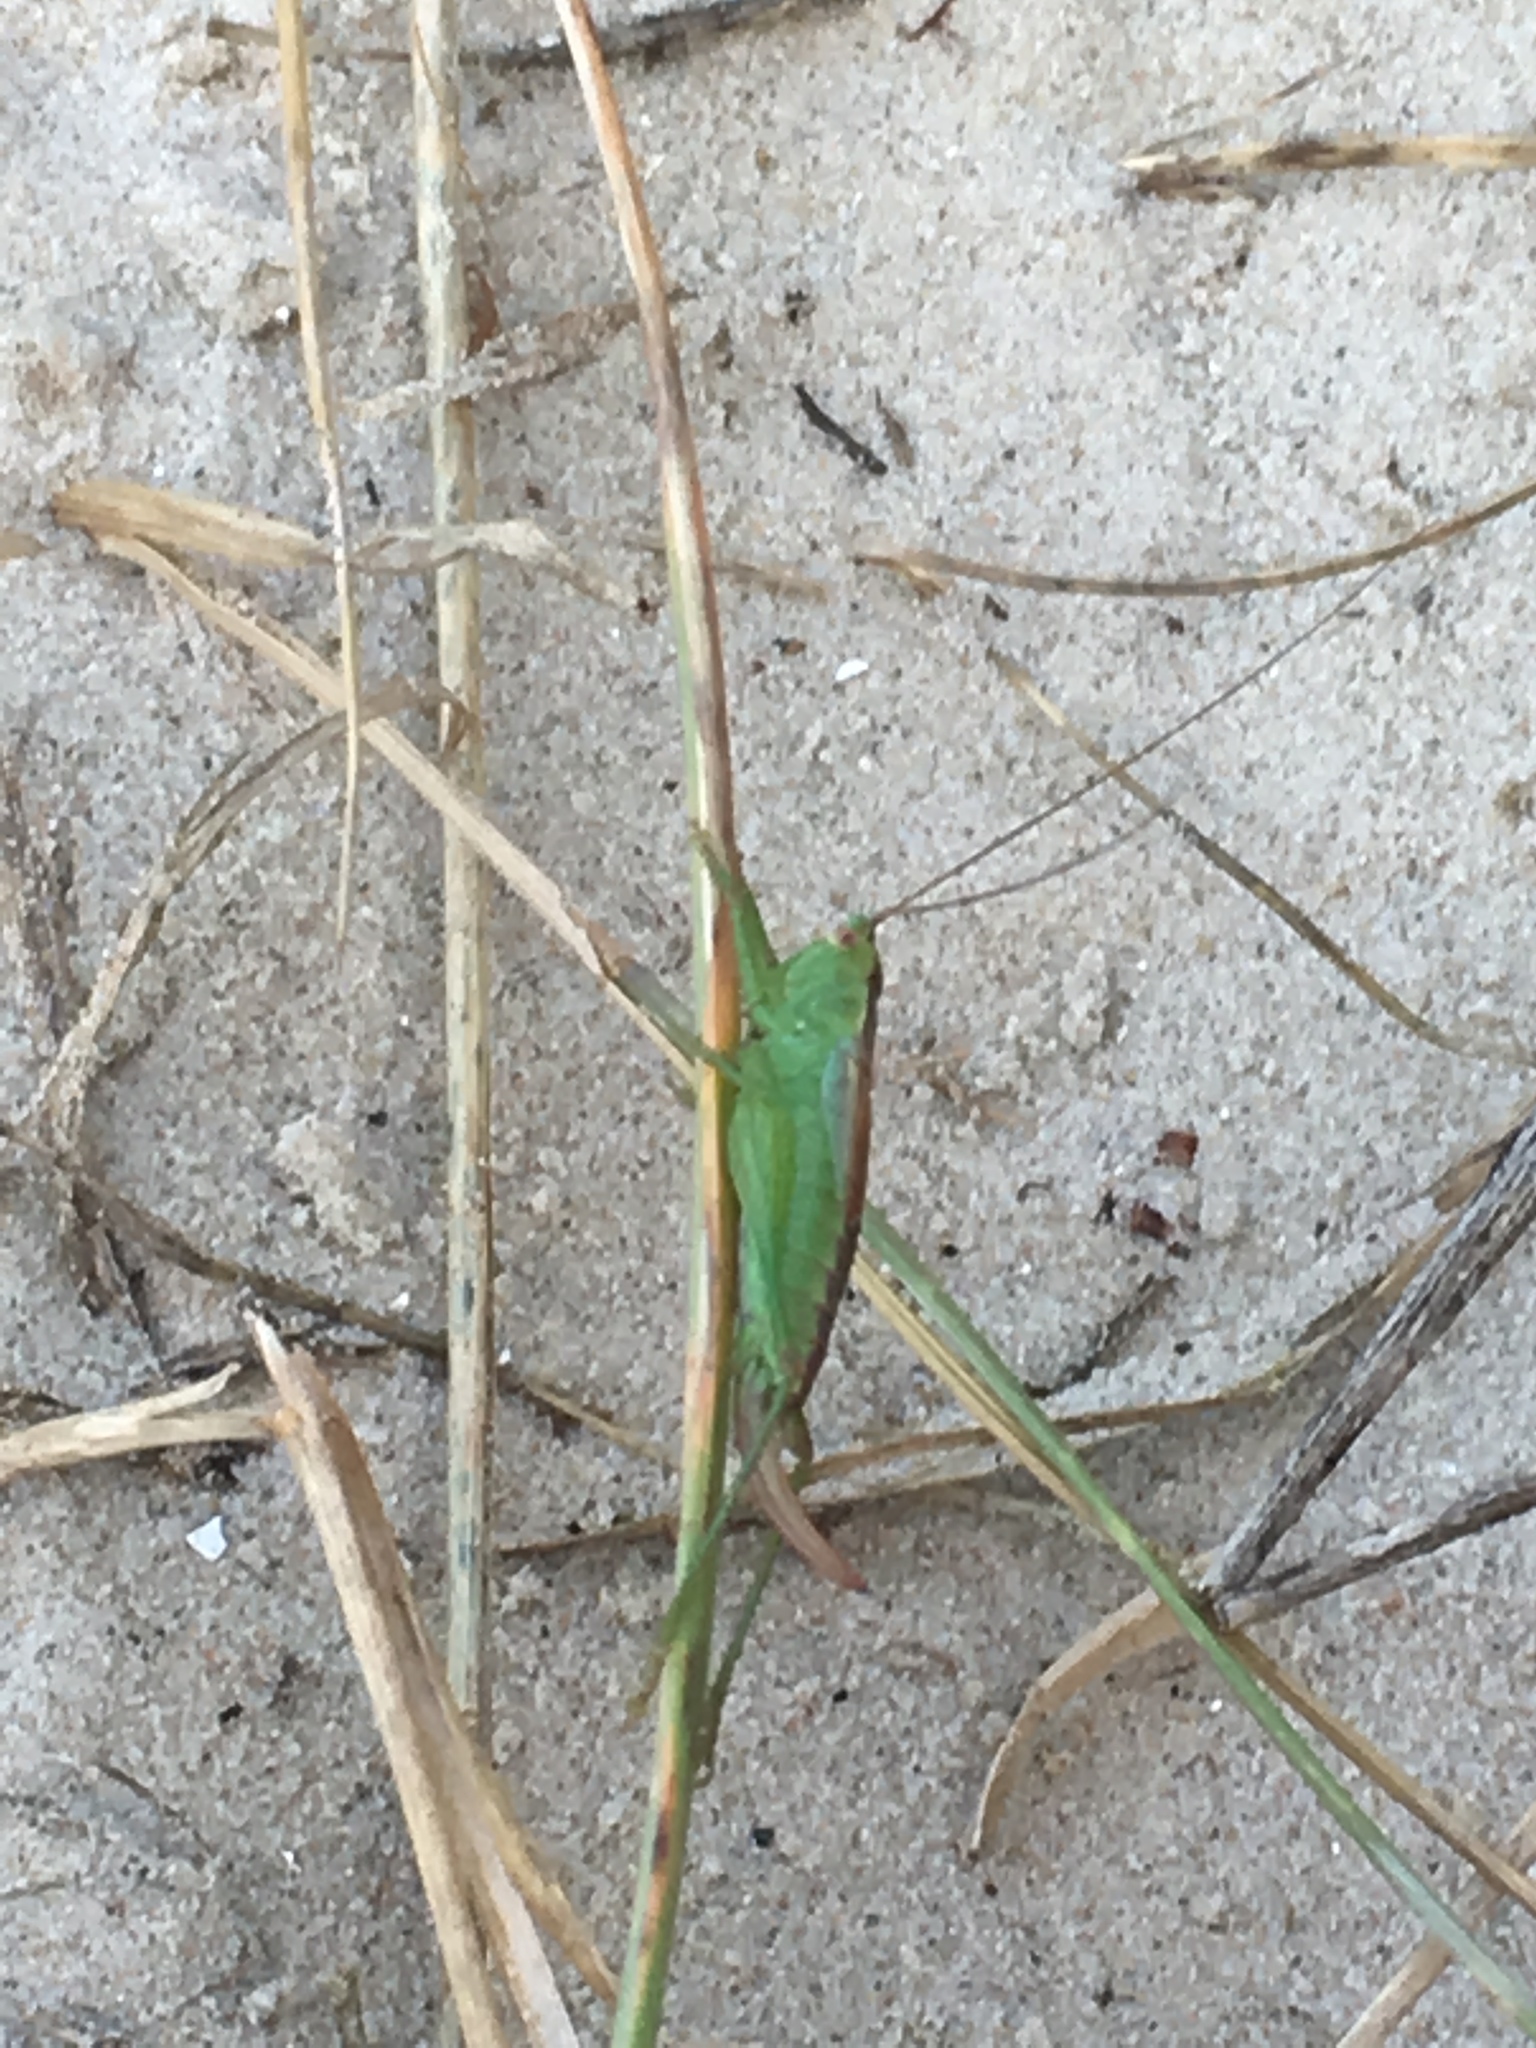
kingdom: Animalia
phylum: Arthropoda
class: Insecta
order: Orthoptera
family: Tettigoniidae
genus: Conocephalus
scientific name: Conocephalus dorsalis
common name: Short-winged conehead
